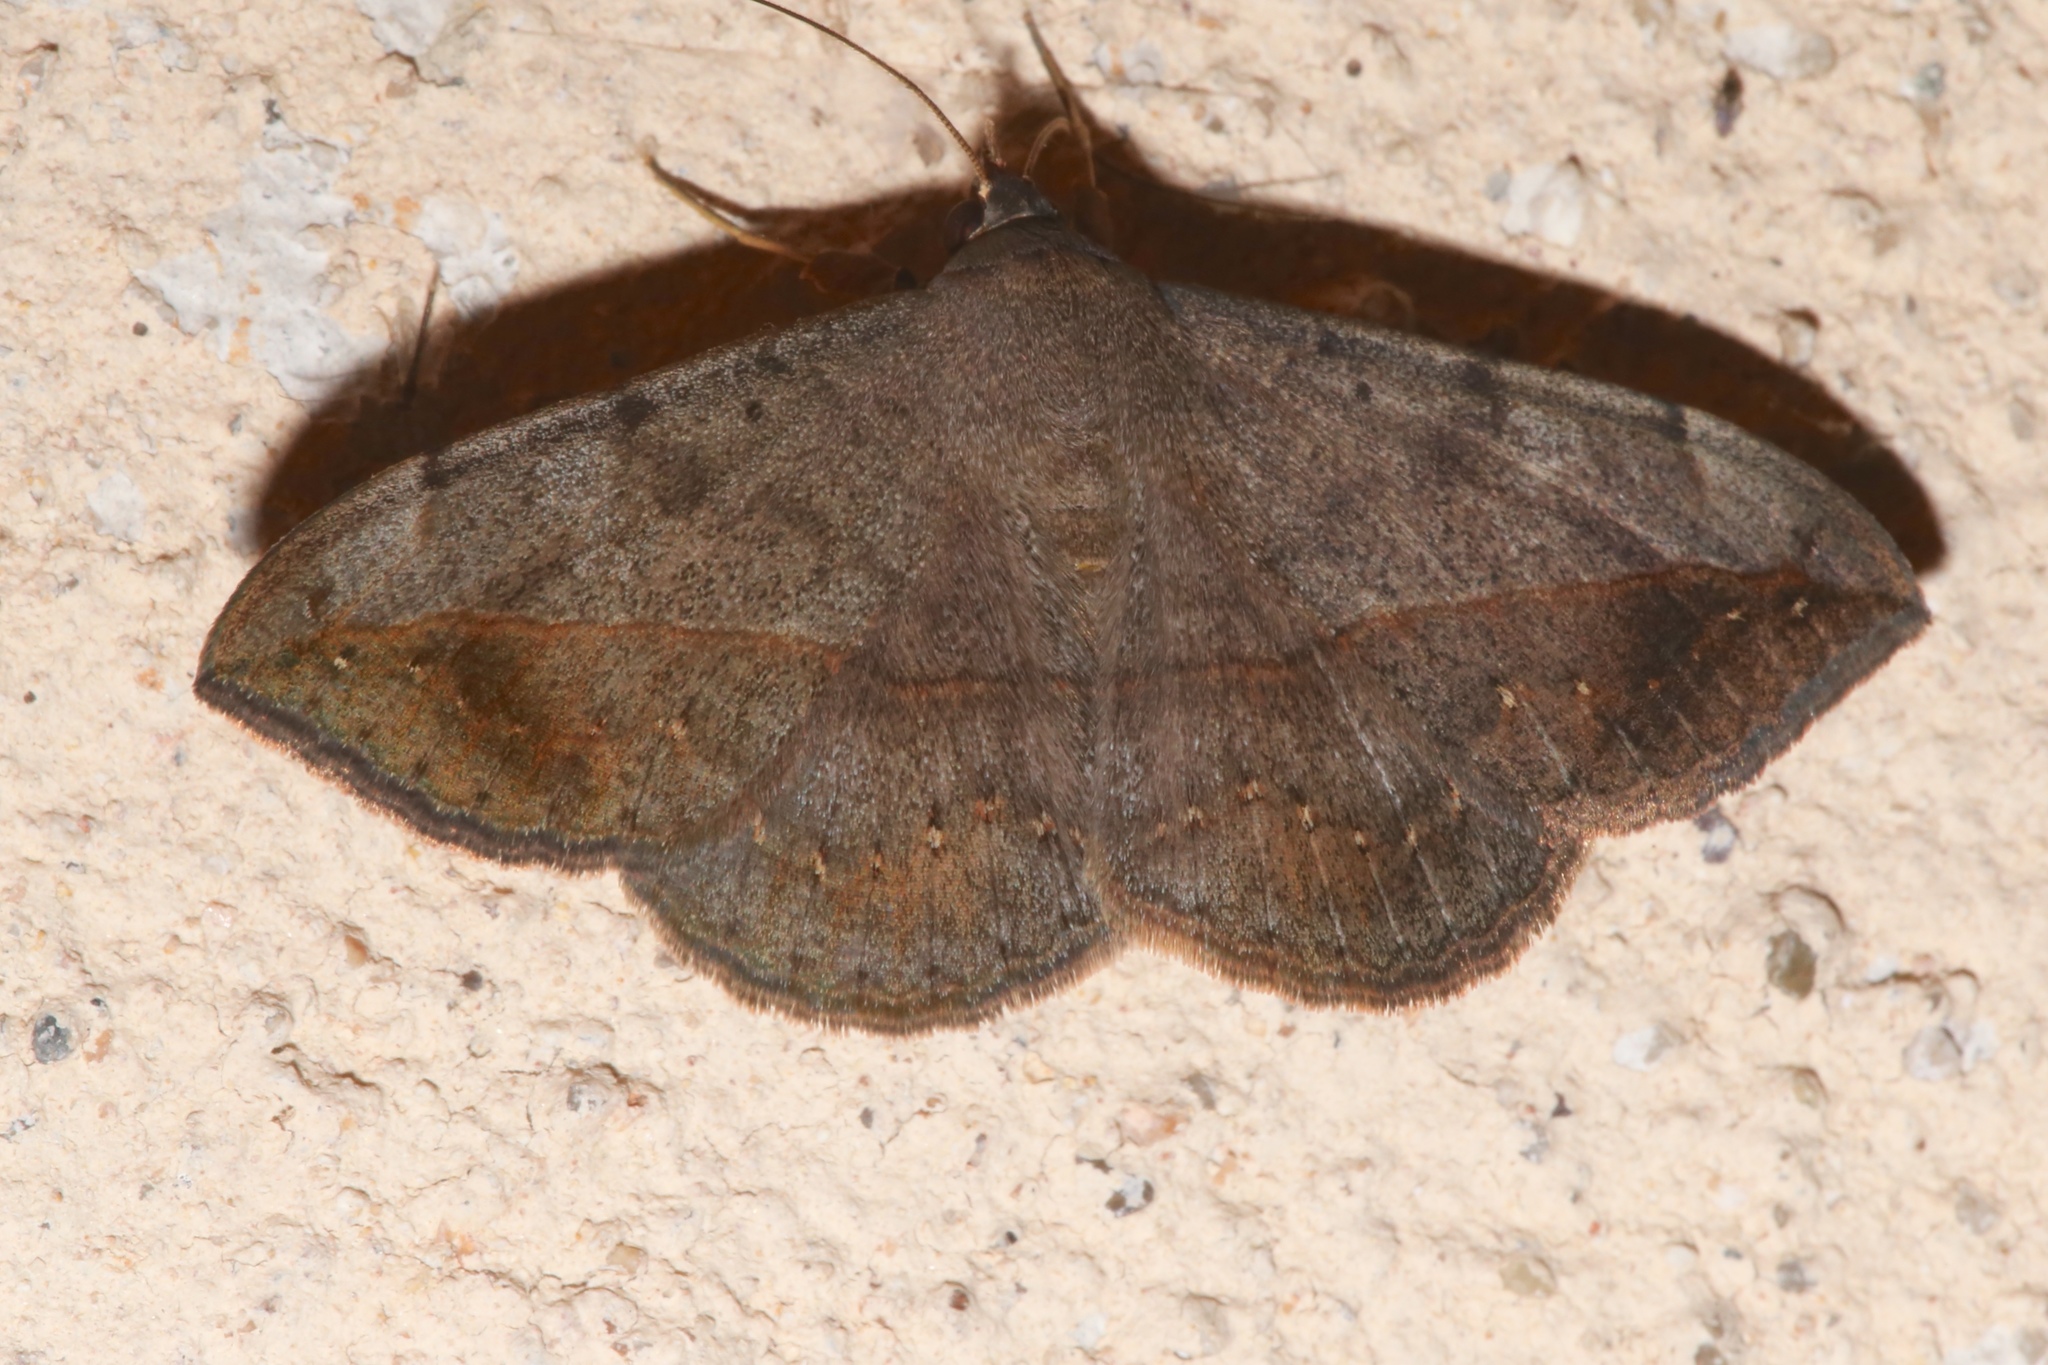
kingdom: Animalia
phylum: Arthropoda
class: Insecta
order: Lepidoptera
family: Erebidae
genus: Anticarsia
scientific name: Anticarsia gemmatalis
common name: Cutworm moth
